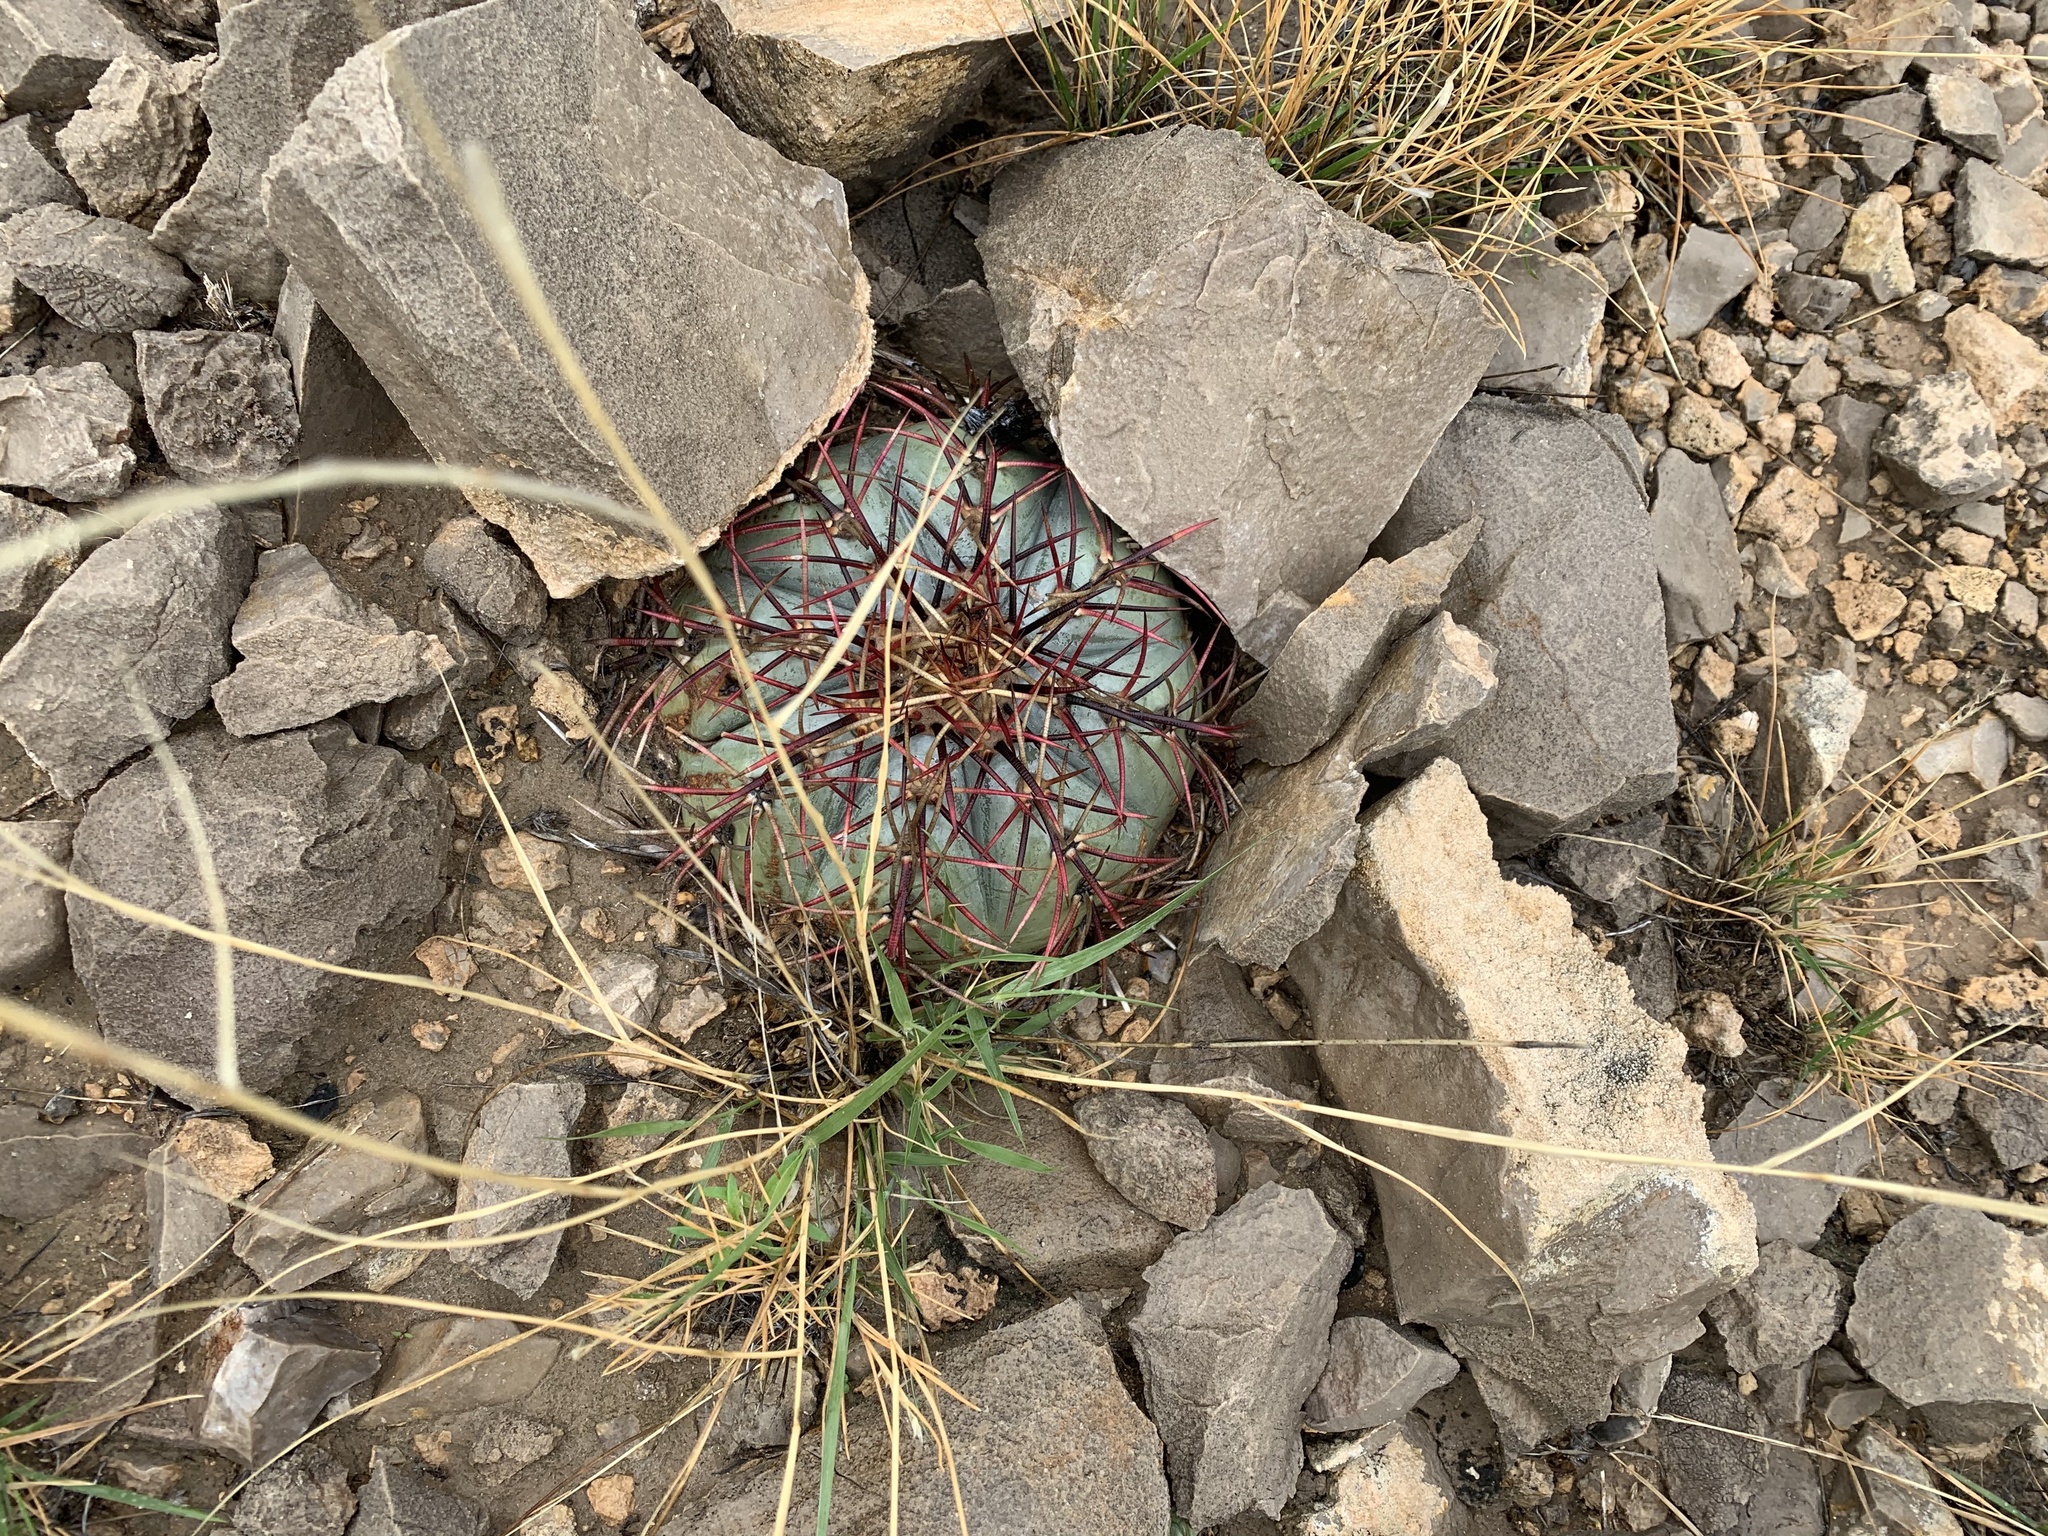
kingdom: Plantae
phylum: Tracheophyta
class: Magnoliopsida
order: Caryophyllales
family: Cactaceae
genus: Echinocactus
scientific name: Echinocactus horizonthalonius
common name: Devilshead
